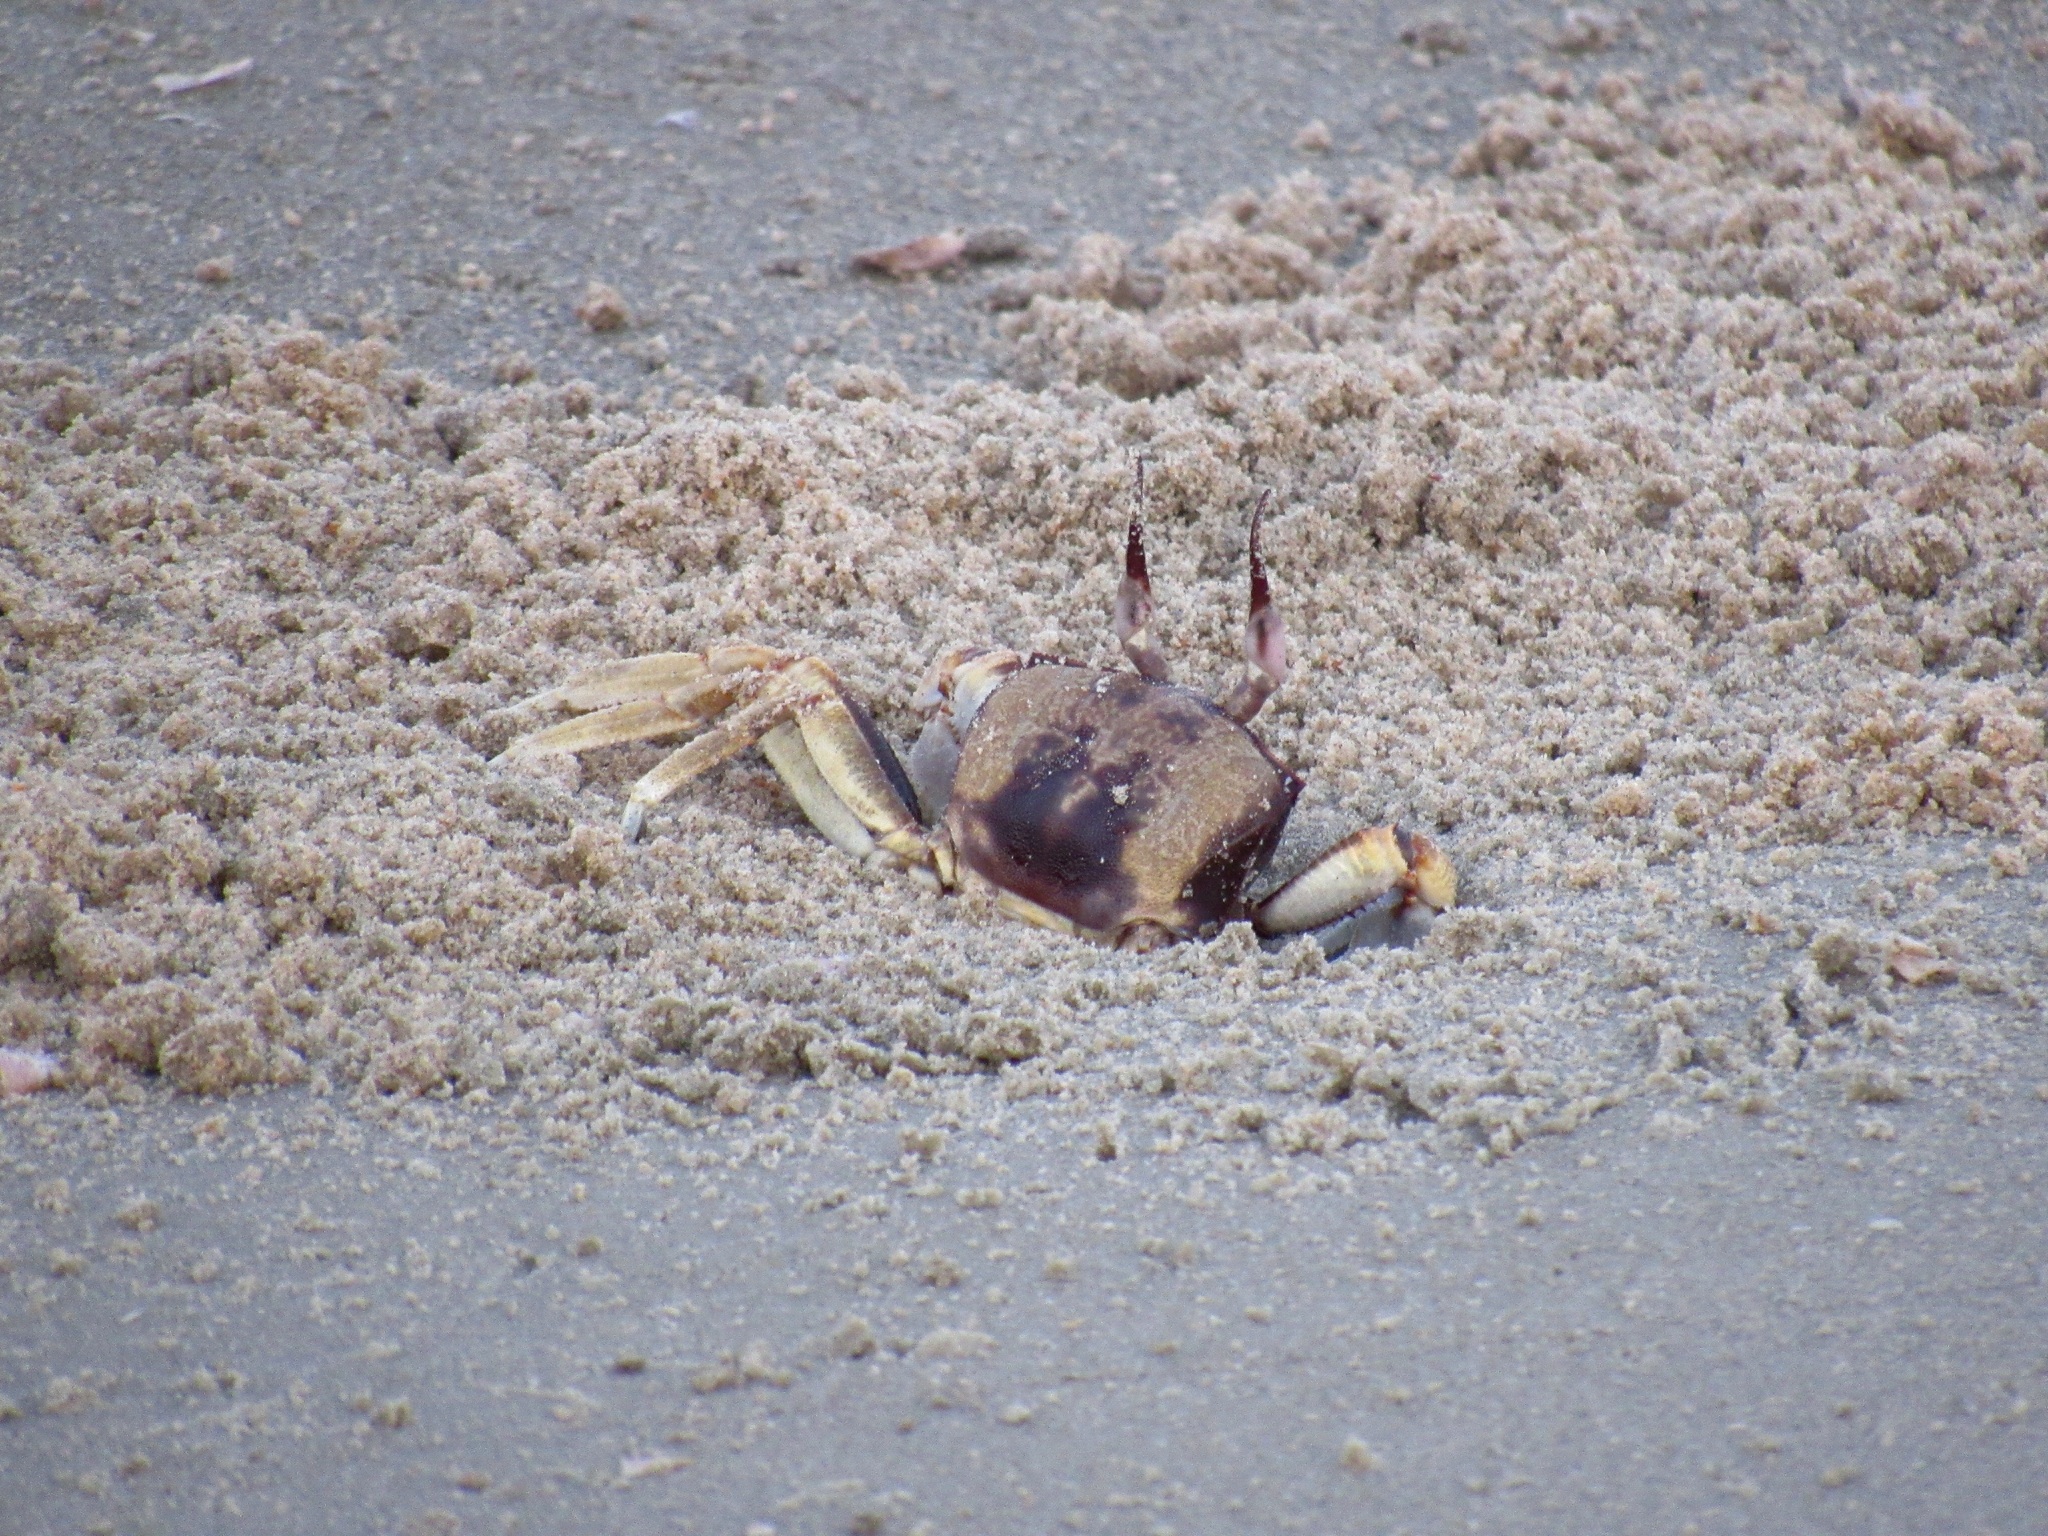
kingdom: Animalia
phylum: Arthropoda
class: Malacostraca
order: Decapoda
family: Ocypodidae
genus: Ocypode
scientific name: Ocypode ceratophthalmus
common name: Indo-pacific ghost crab
